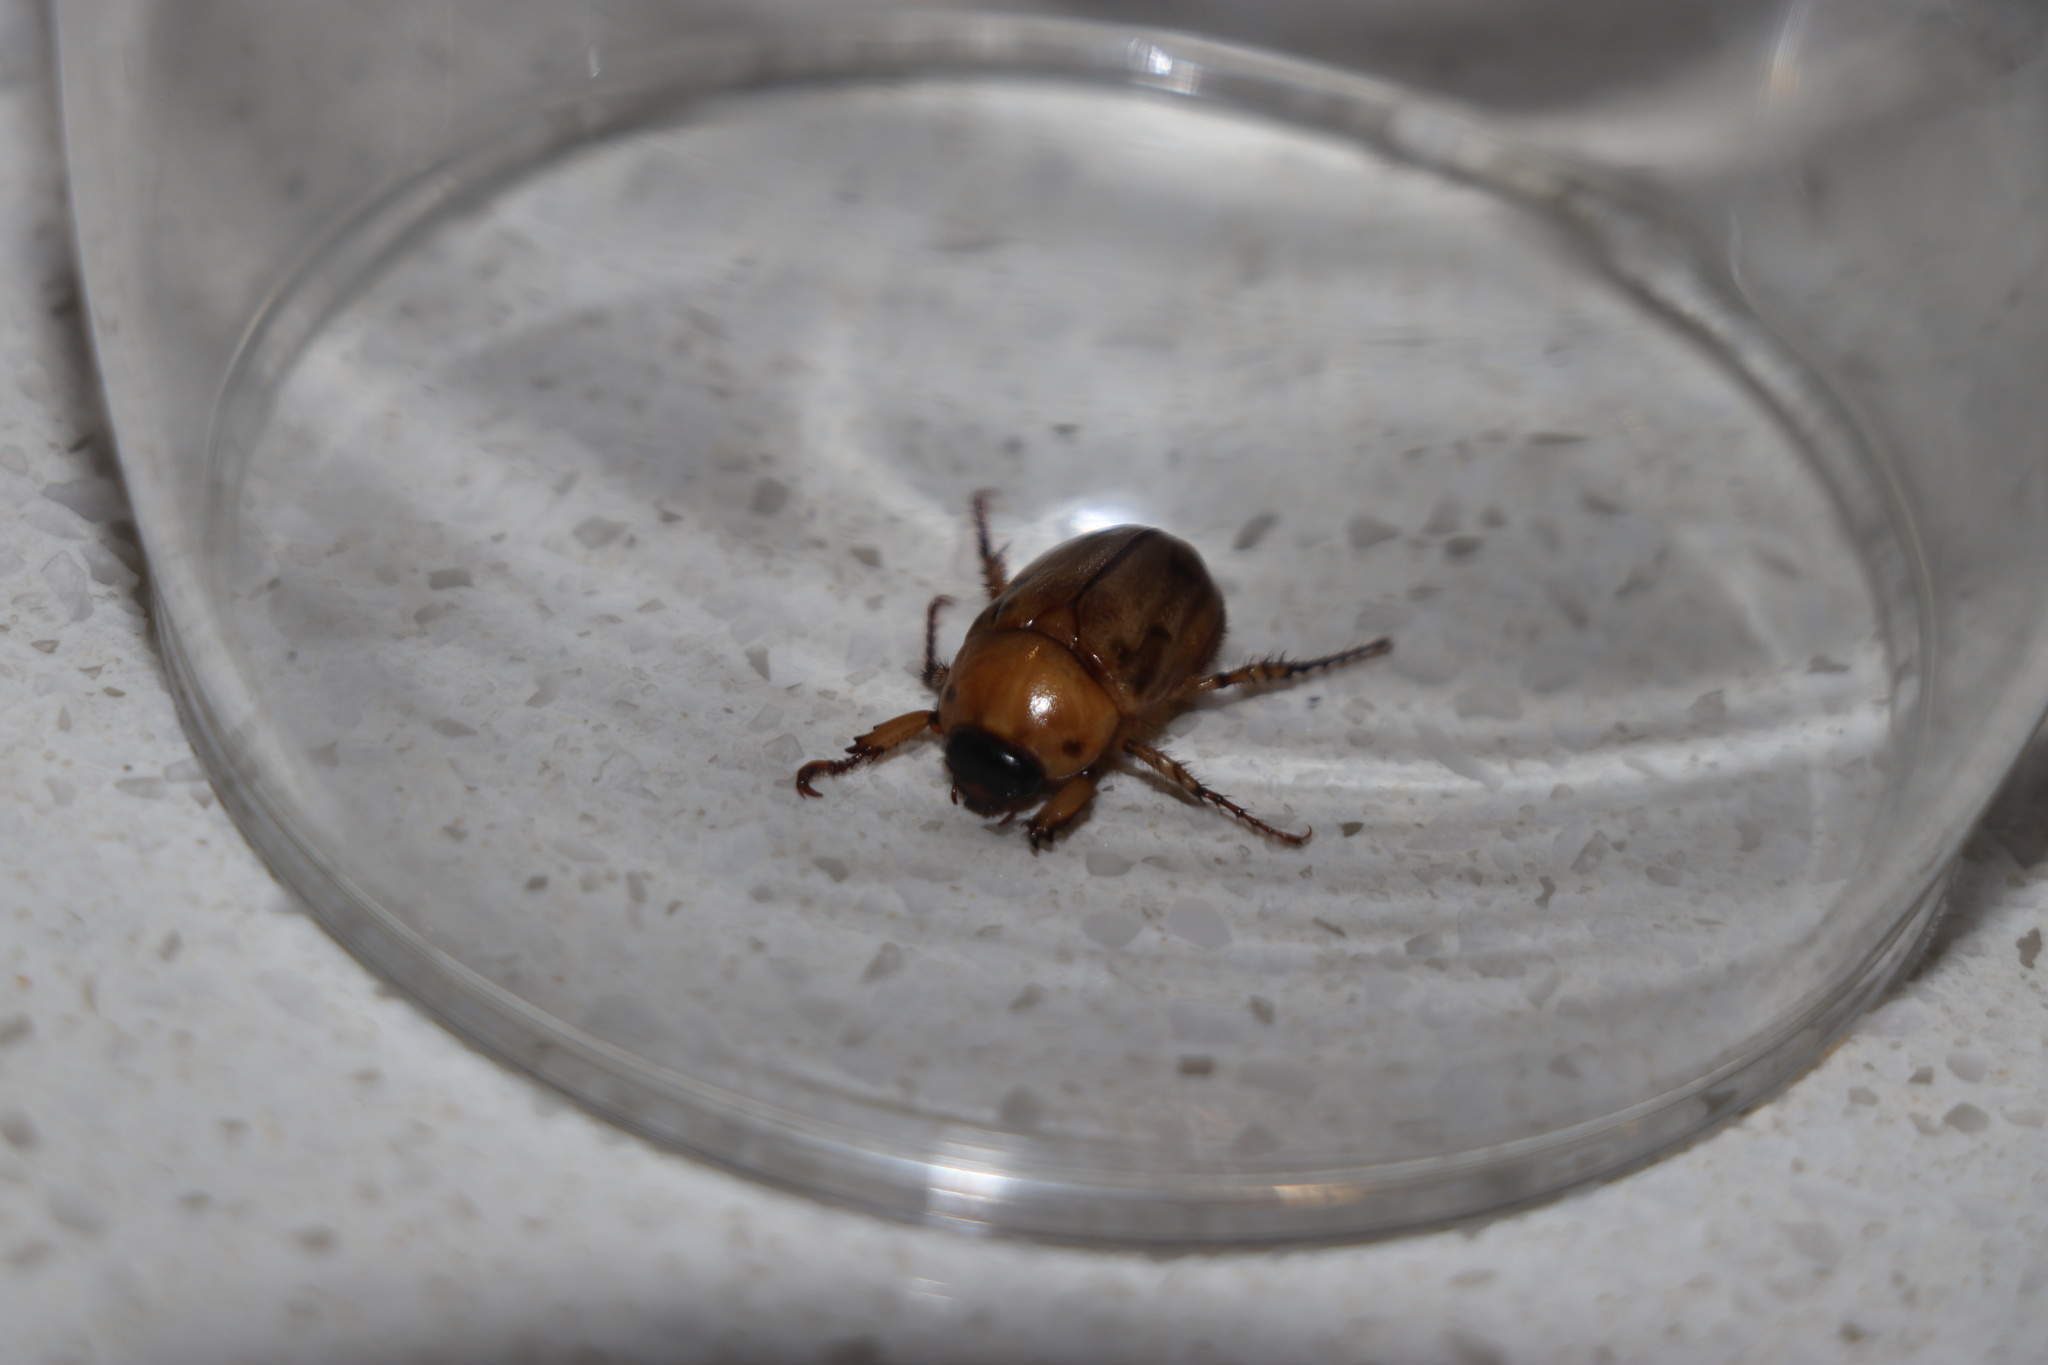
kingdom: Animalia
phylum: Arthropoda
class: Insecta
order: Coleoptera
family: Scarabaeidae
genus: Cyclocephala
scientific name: Cyclocephala signaticollis
